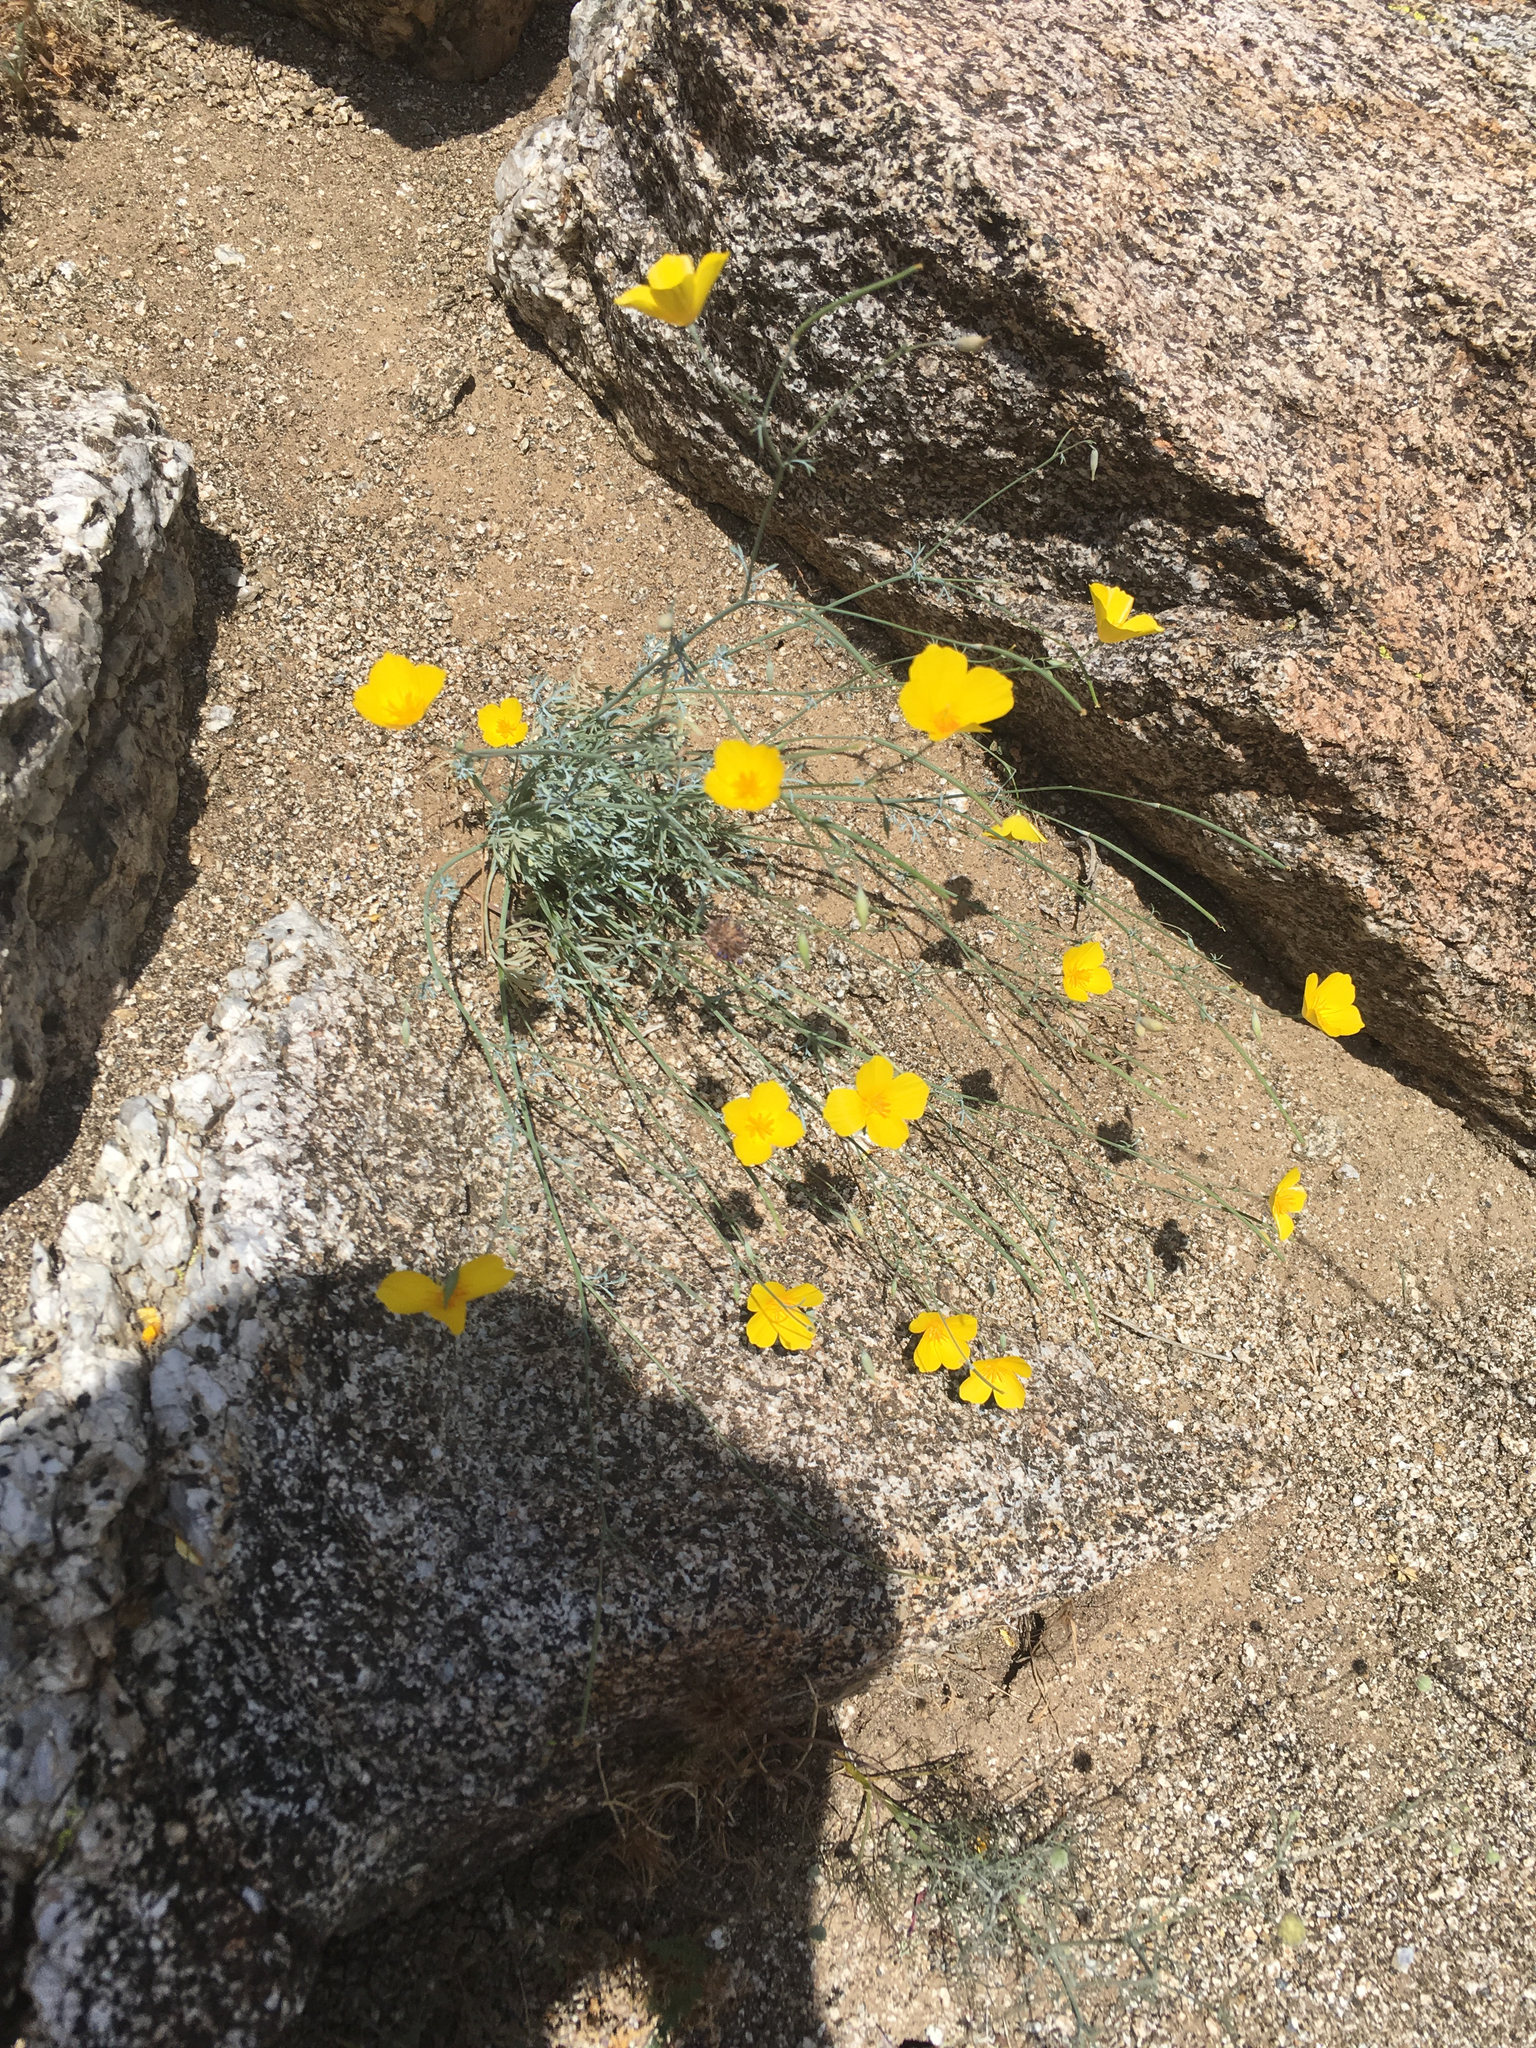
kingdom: Plantae
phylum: Tracheophyta
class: Magnoliopsida
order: Ranunculales
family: Papaveraceae
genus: Eschscholzia
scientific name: Eschscholzia parishii
